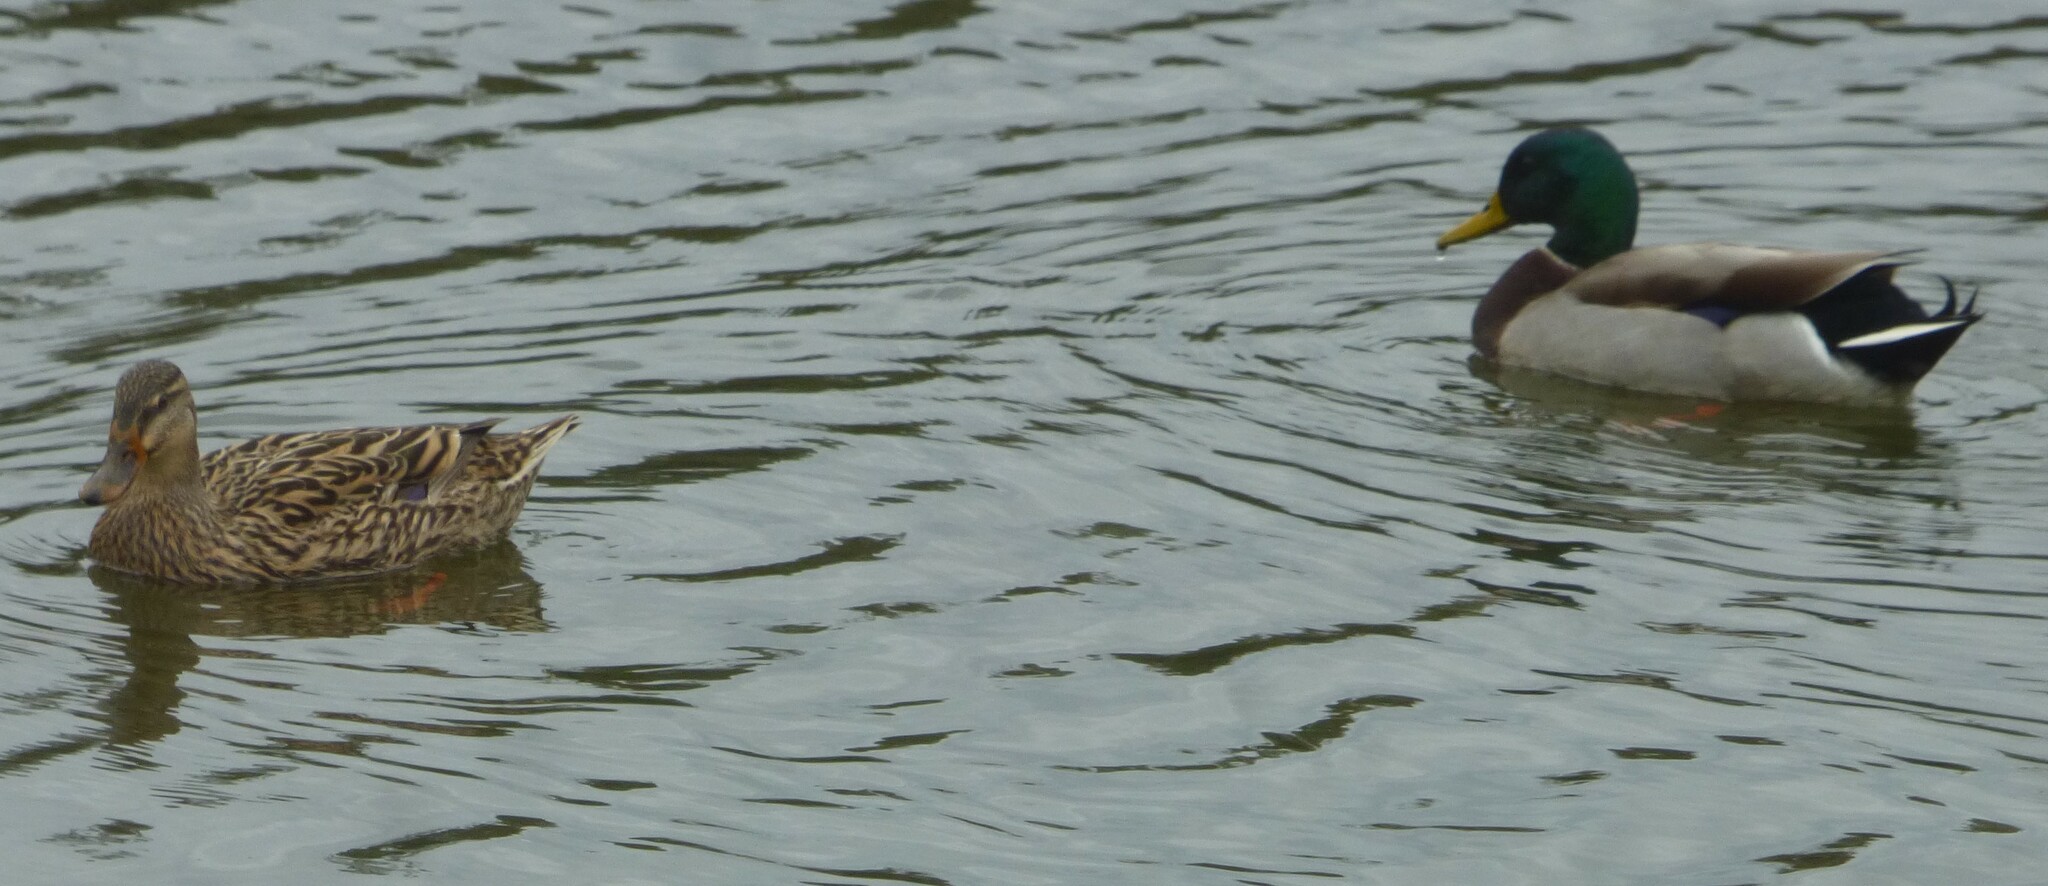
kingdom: Animalia
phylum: Chordata
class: Aves
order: Anseriformes
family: Anatidae
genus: Anas
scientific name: Anas platyrhynchos
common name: Mallard
